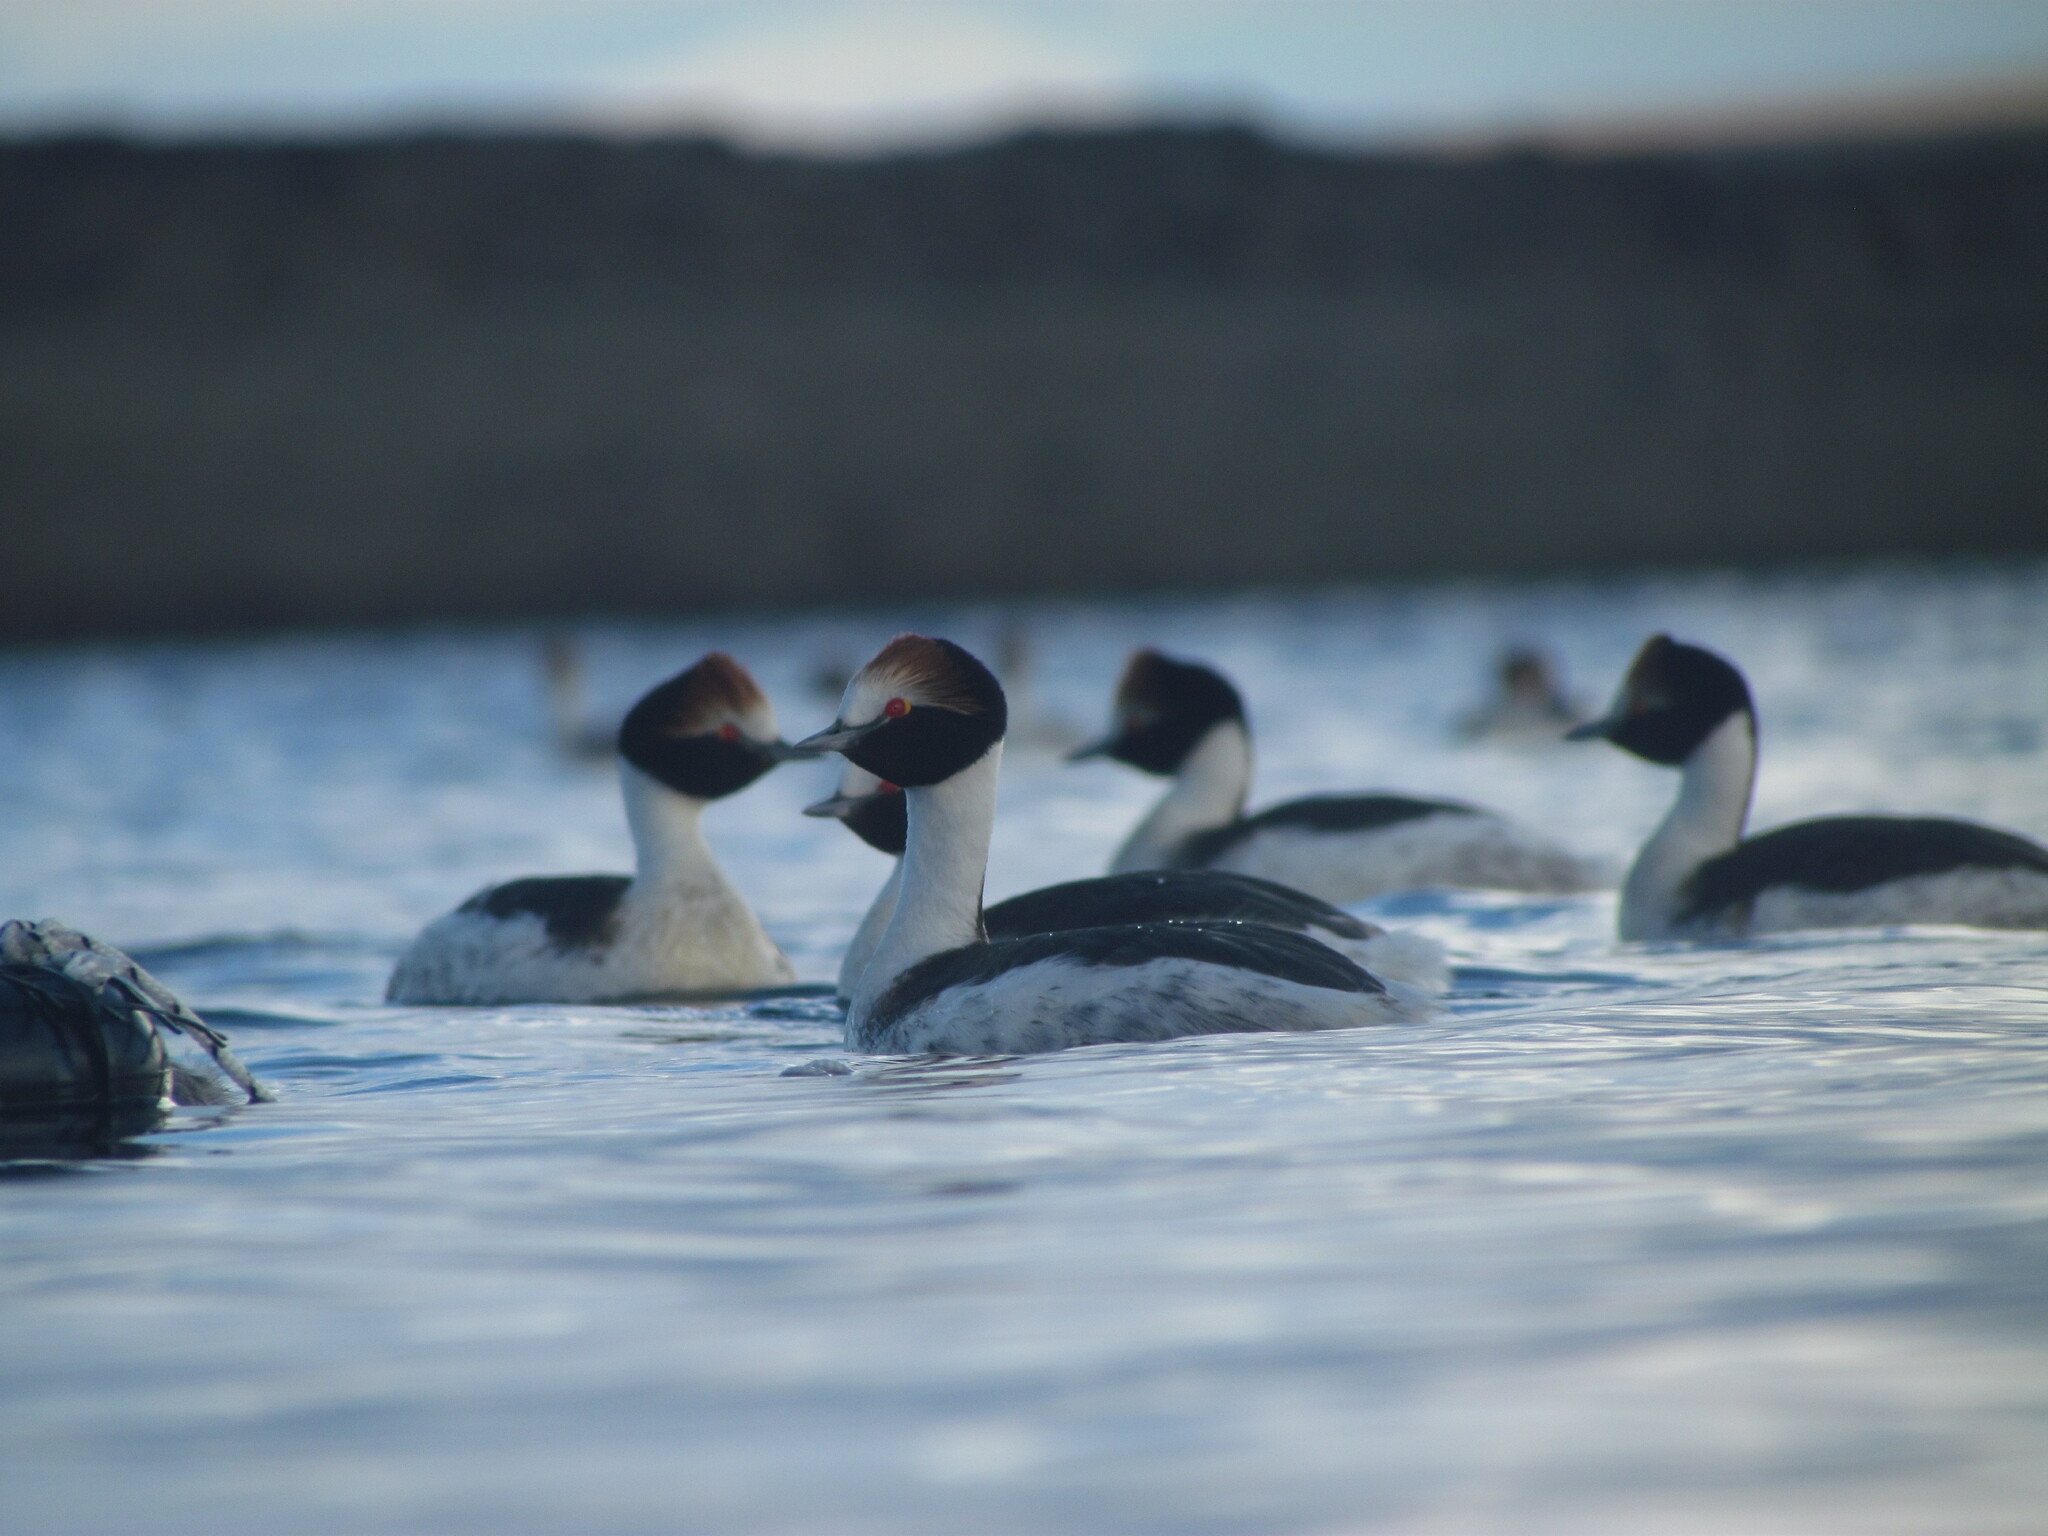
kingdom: Animalia
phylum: Chordata
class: Aves
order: Podicipediformes
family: Podicipedidae
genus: Podiceps
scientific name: Podiceps gallardoi
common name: Hooded grebe
